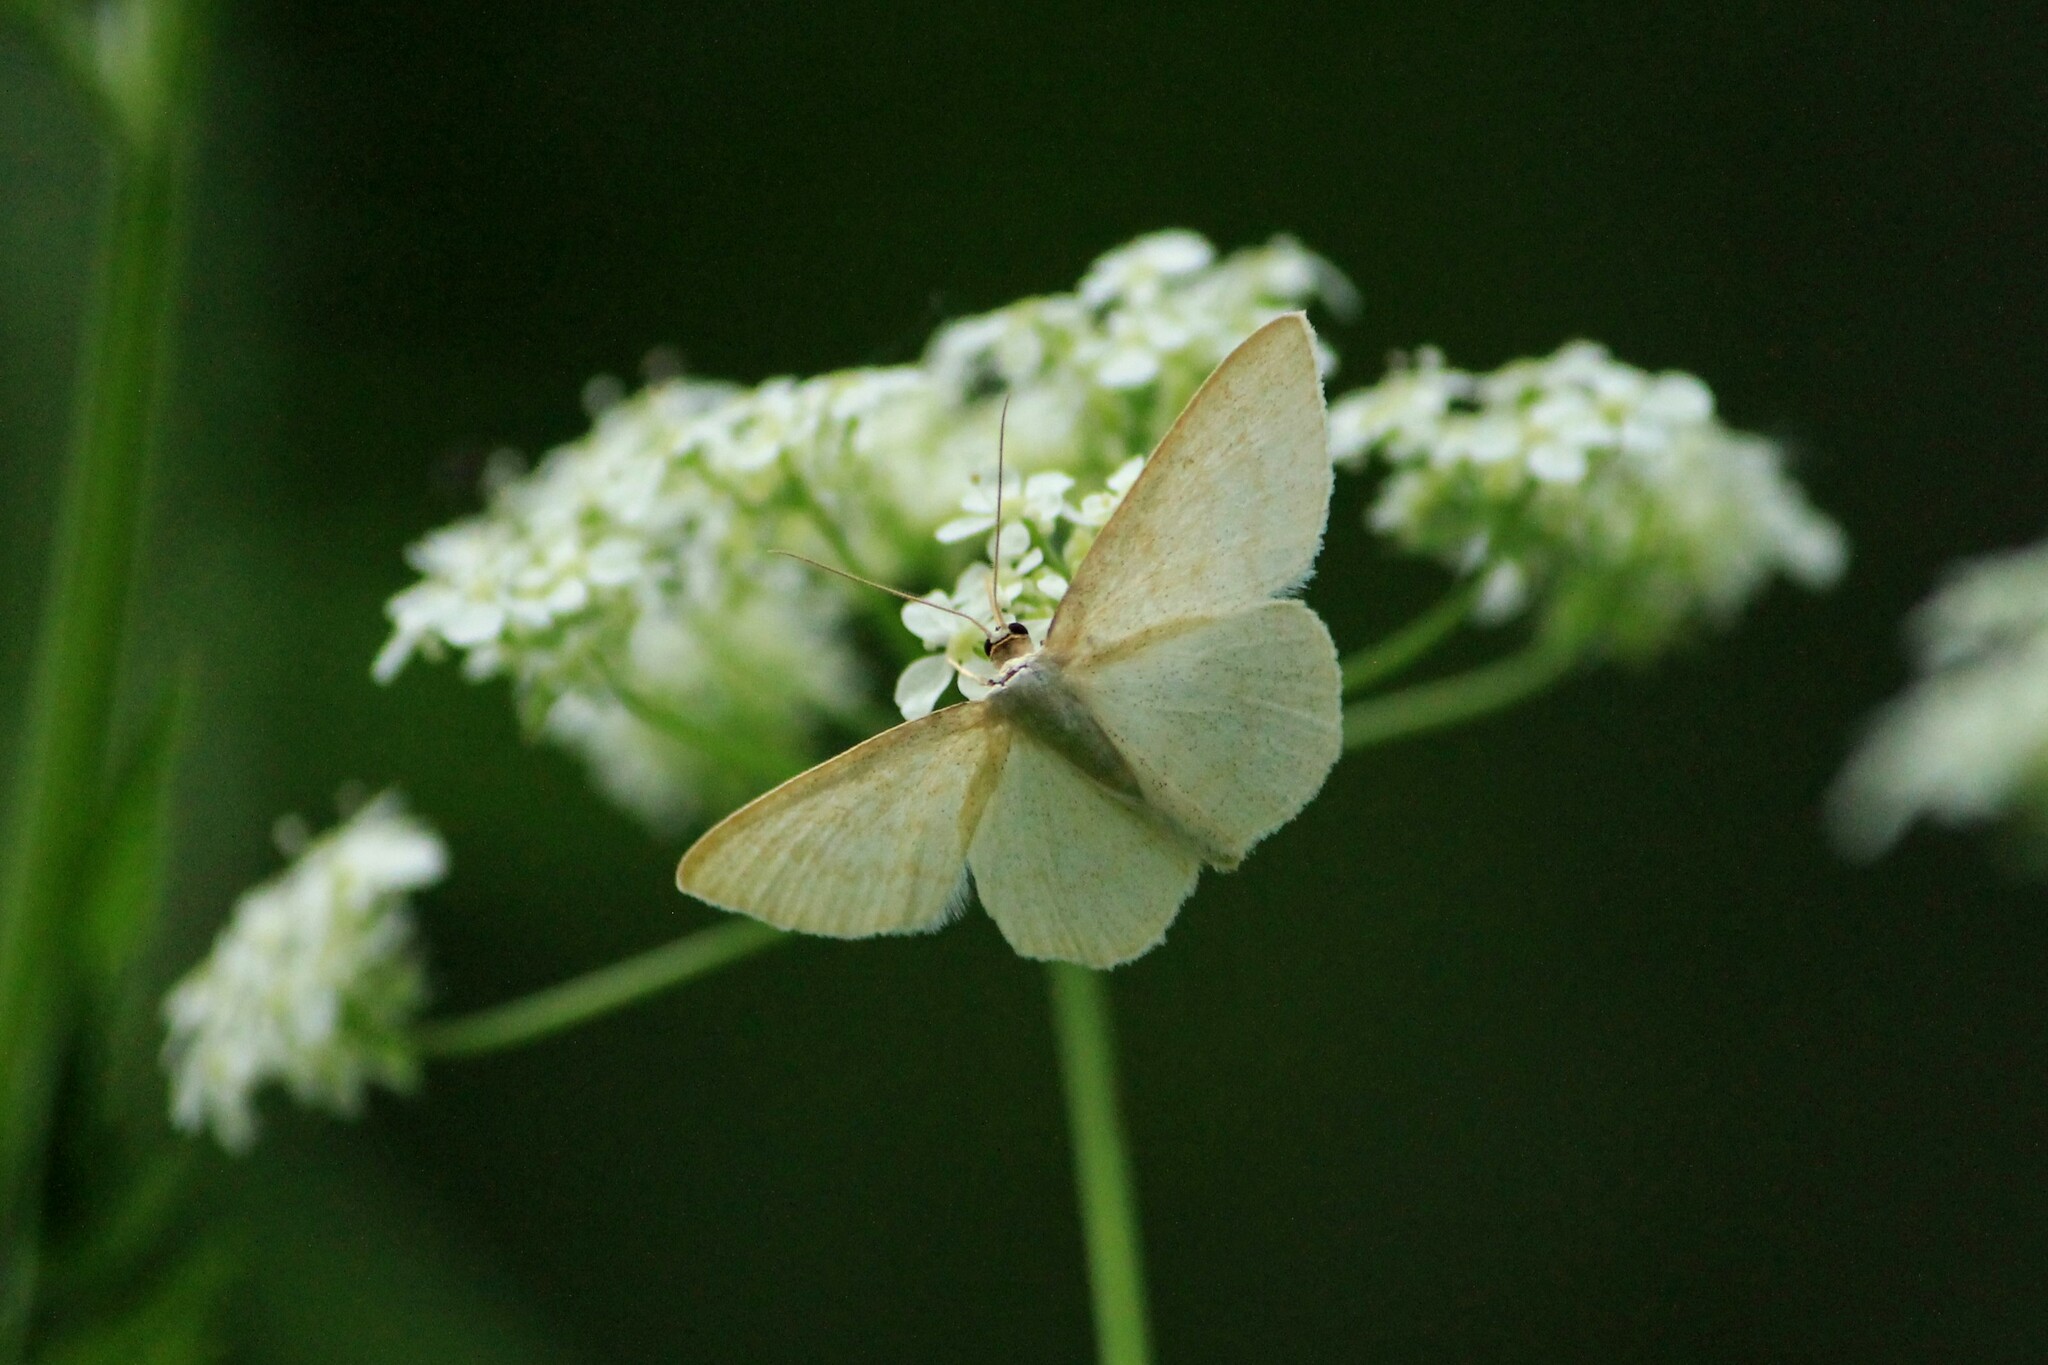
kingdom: Animalia
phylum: Arthropoda
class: Insecta
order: Lepidoptera
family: Geometridae
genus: Scopula
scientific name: Scopula floslactata
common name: Cream wave
